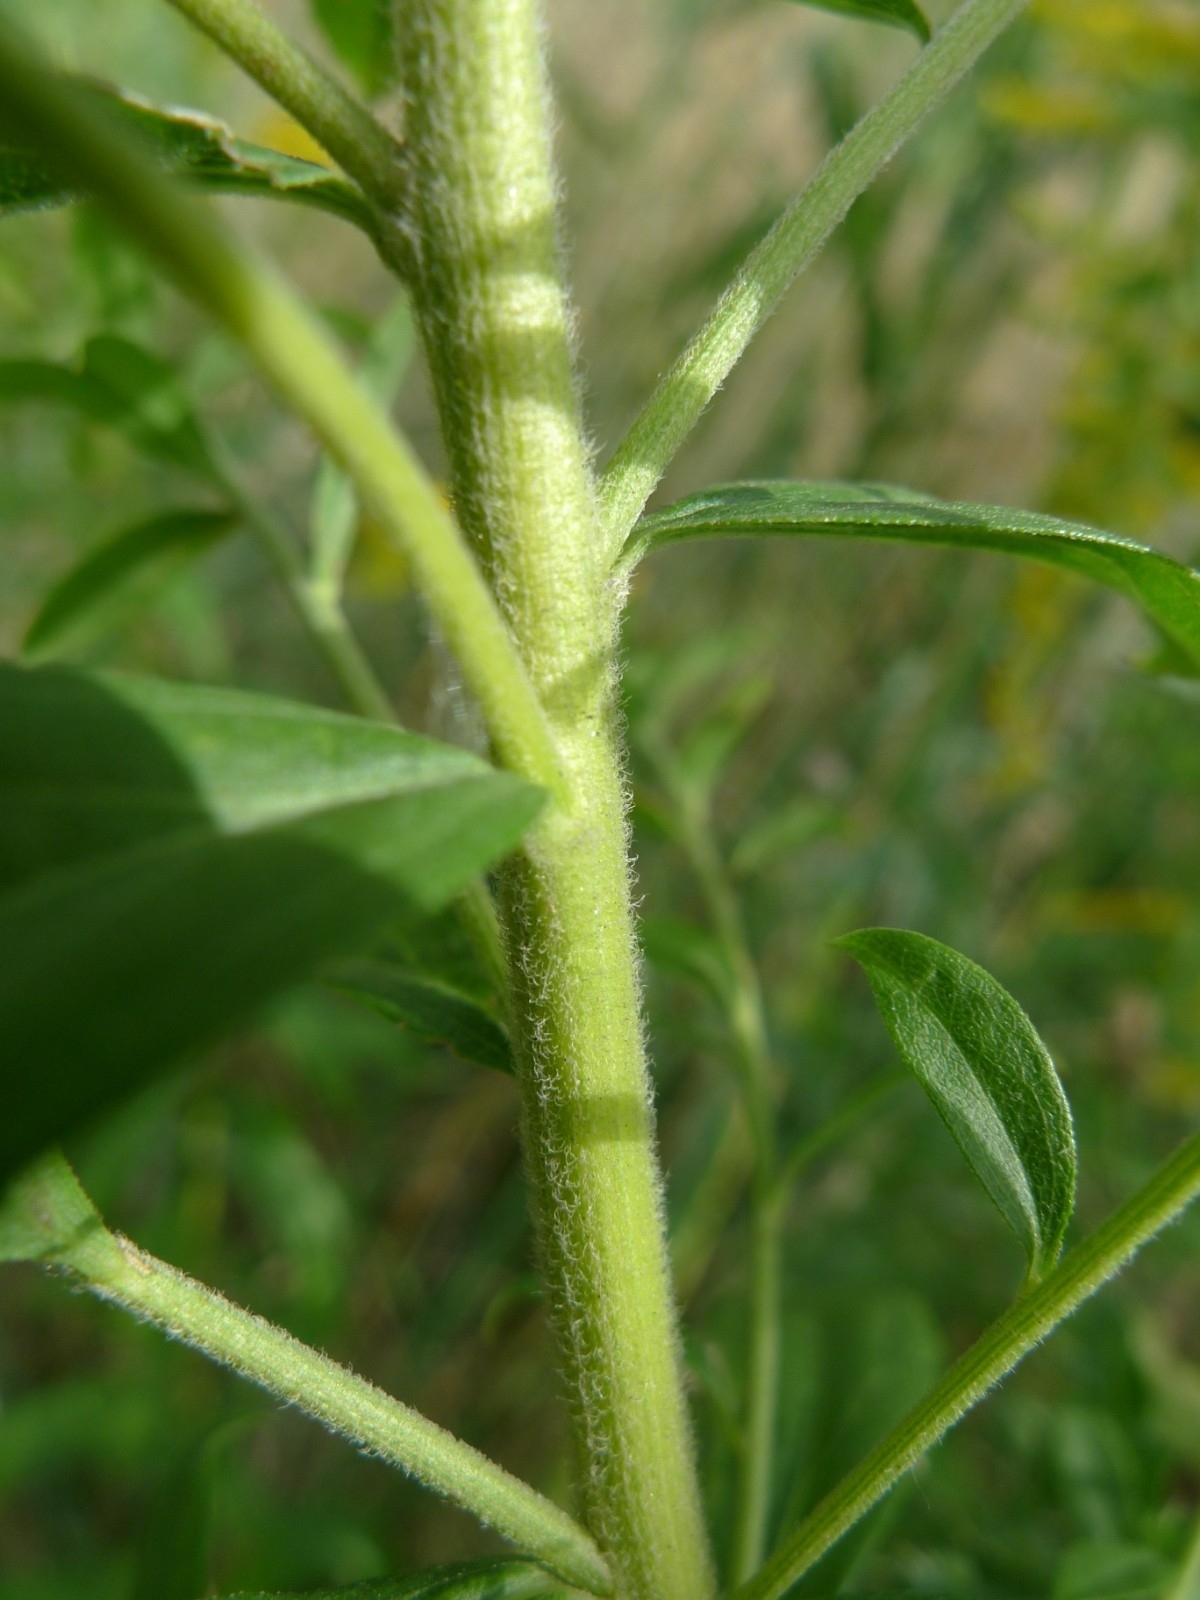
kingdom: Plantae
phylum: Tracheophyta
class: Magnoliopsida
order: Asterales
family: Asteraceae
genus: Solidago
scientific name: Solidago canadensis
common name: Canada goldenrod
